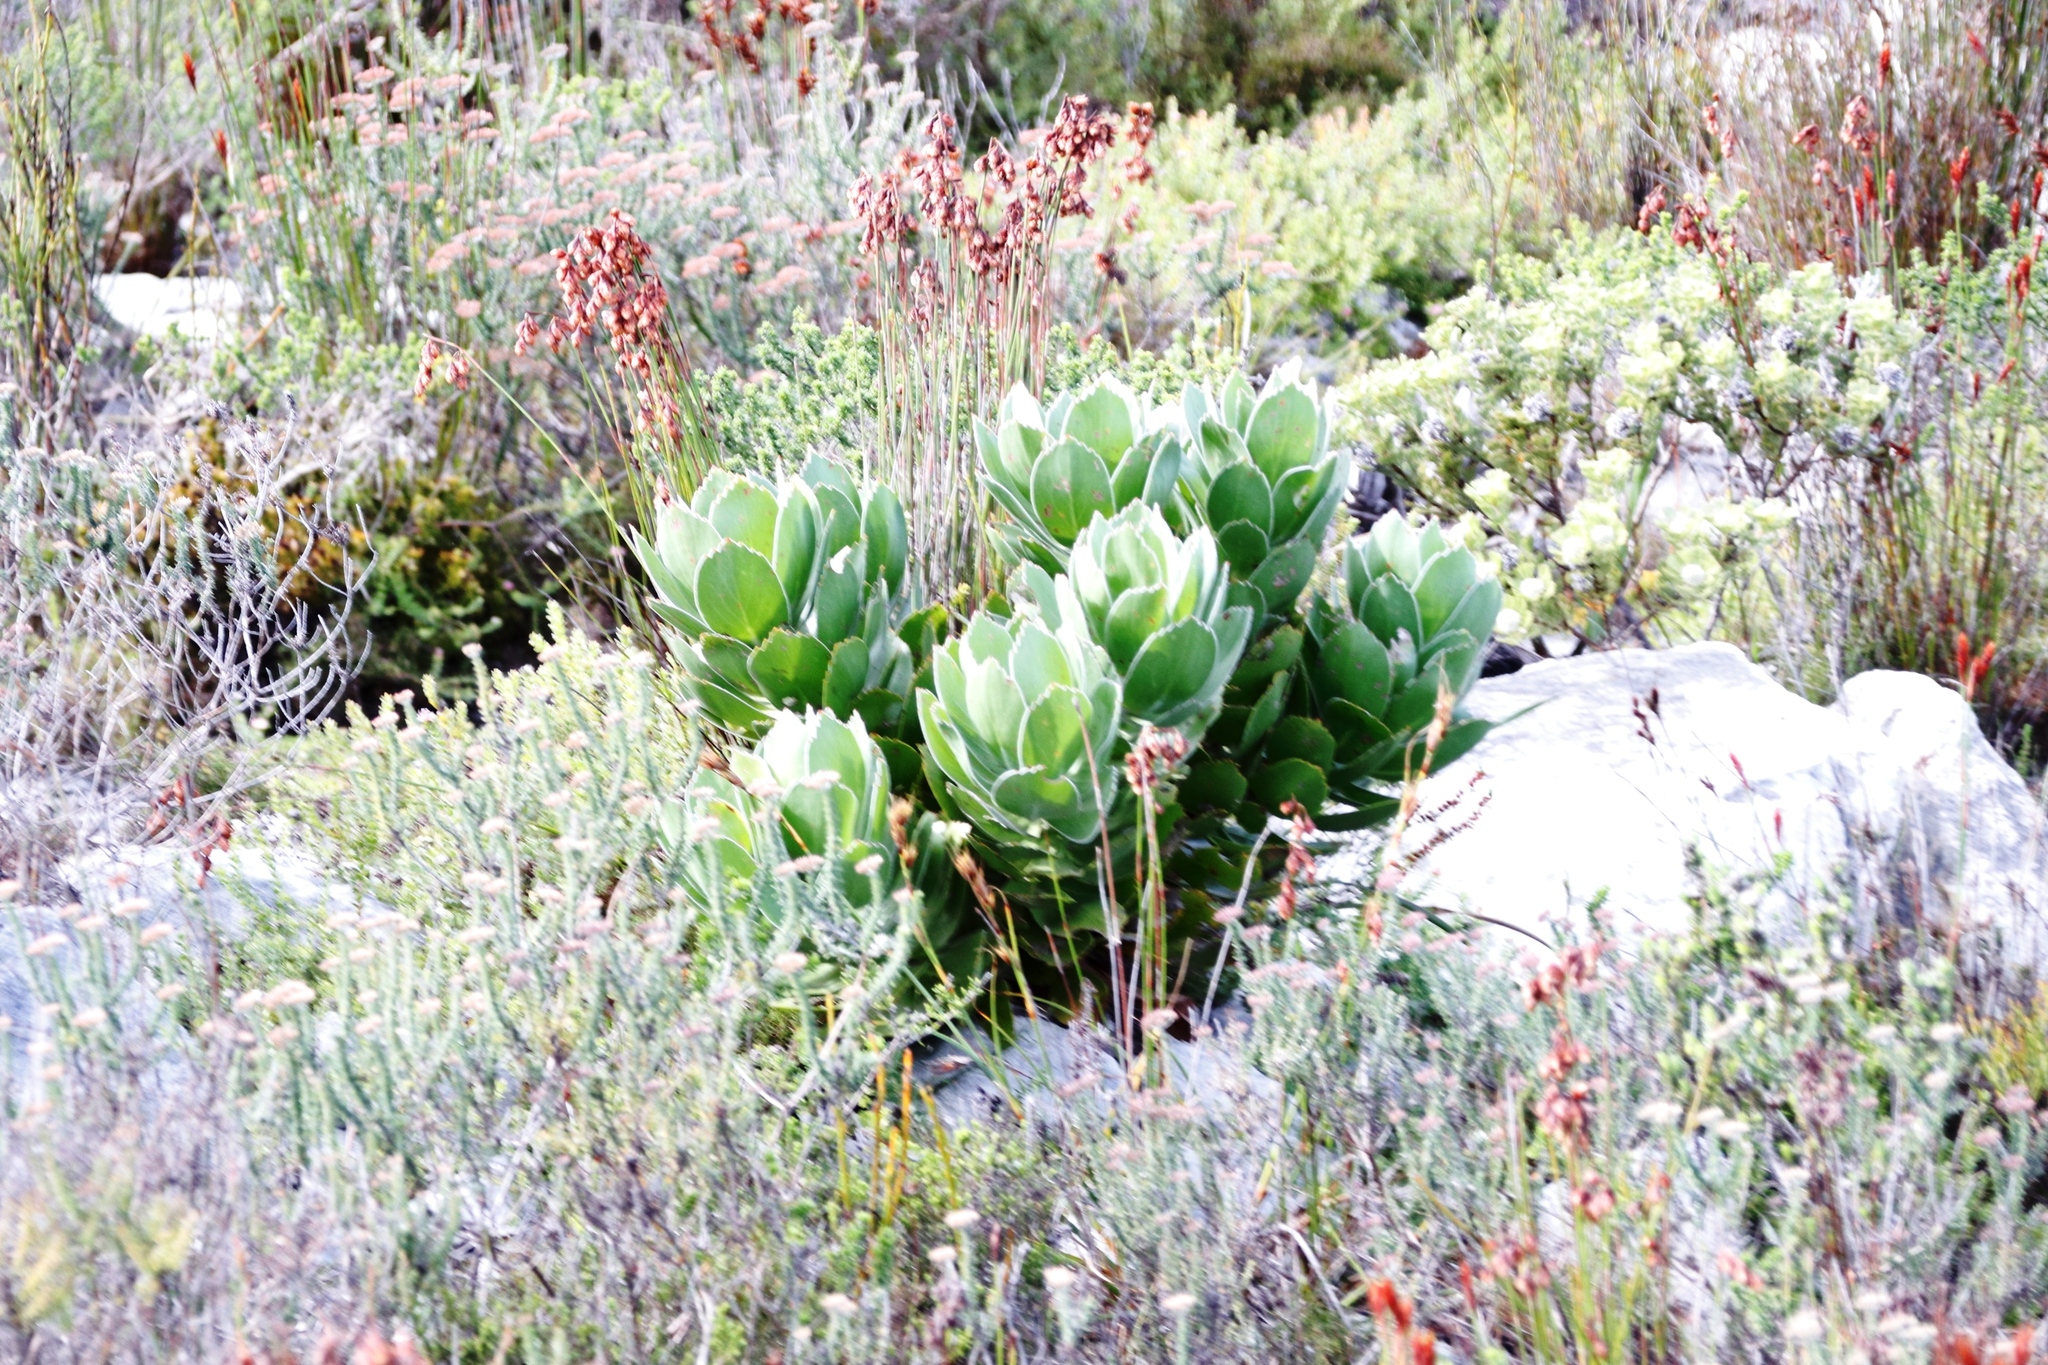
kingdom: Plantae
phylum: Tracheophyta
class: Magnoliopsida
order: Proteales
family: Proteaceae
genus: Leucospermum
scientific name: Leucospermum conocarpodendron
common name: Tree pincushion
